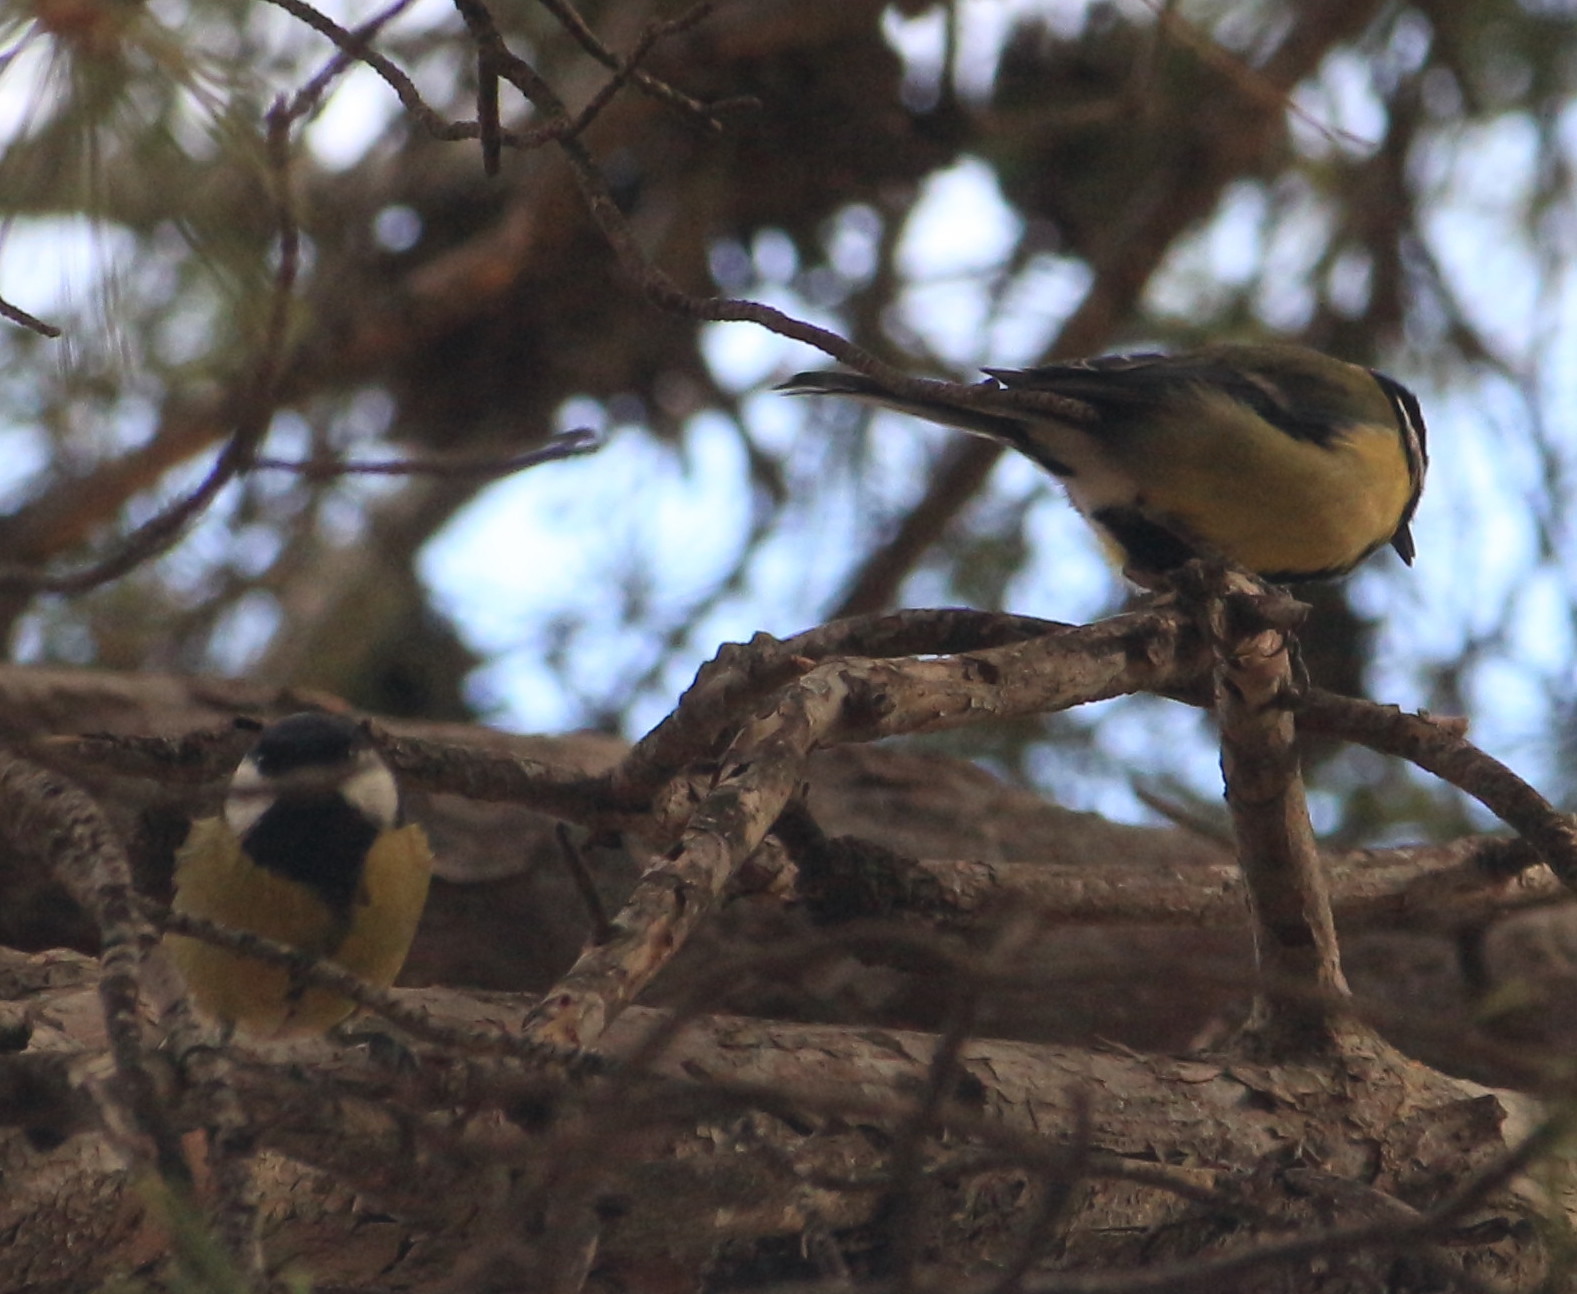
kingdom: Animalia
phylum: Chordata
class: Aves
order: Passeriformes
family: Paridae
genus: Parus
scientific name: Parus major
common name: Great tit
